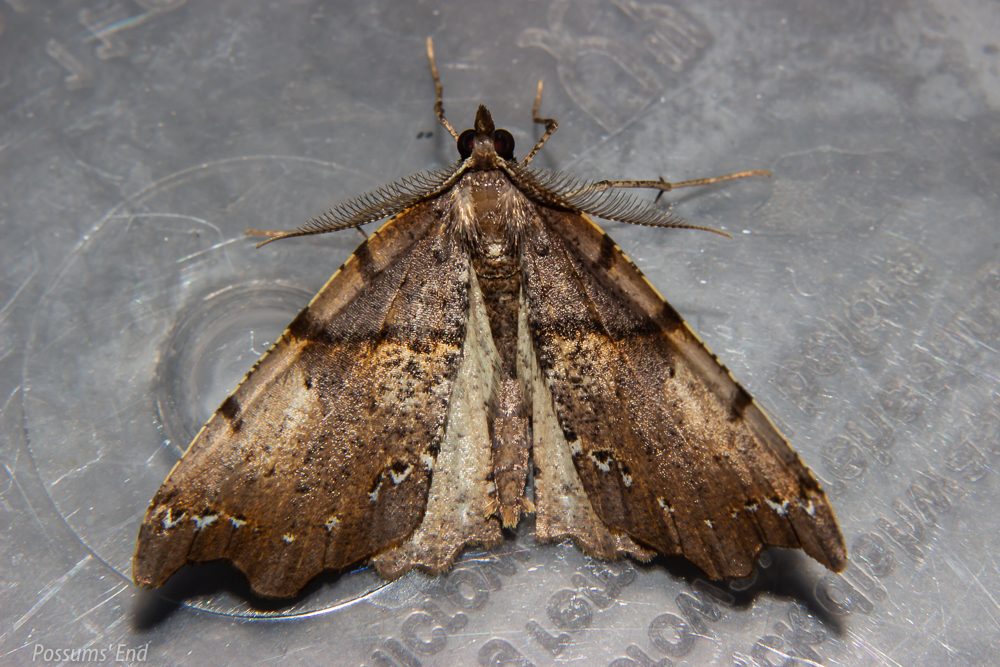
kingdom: Animalia
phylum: Arthropoda
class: Insecta
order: Lepidoptera
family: Geometridae
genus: Chalastra
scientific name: Chalastra pellurgata
